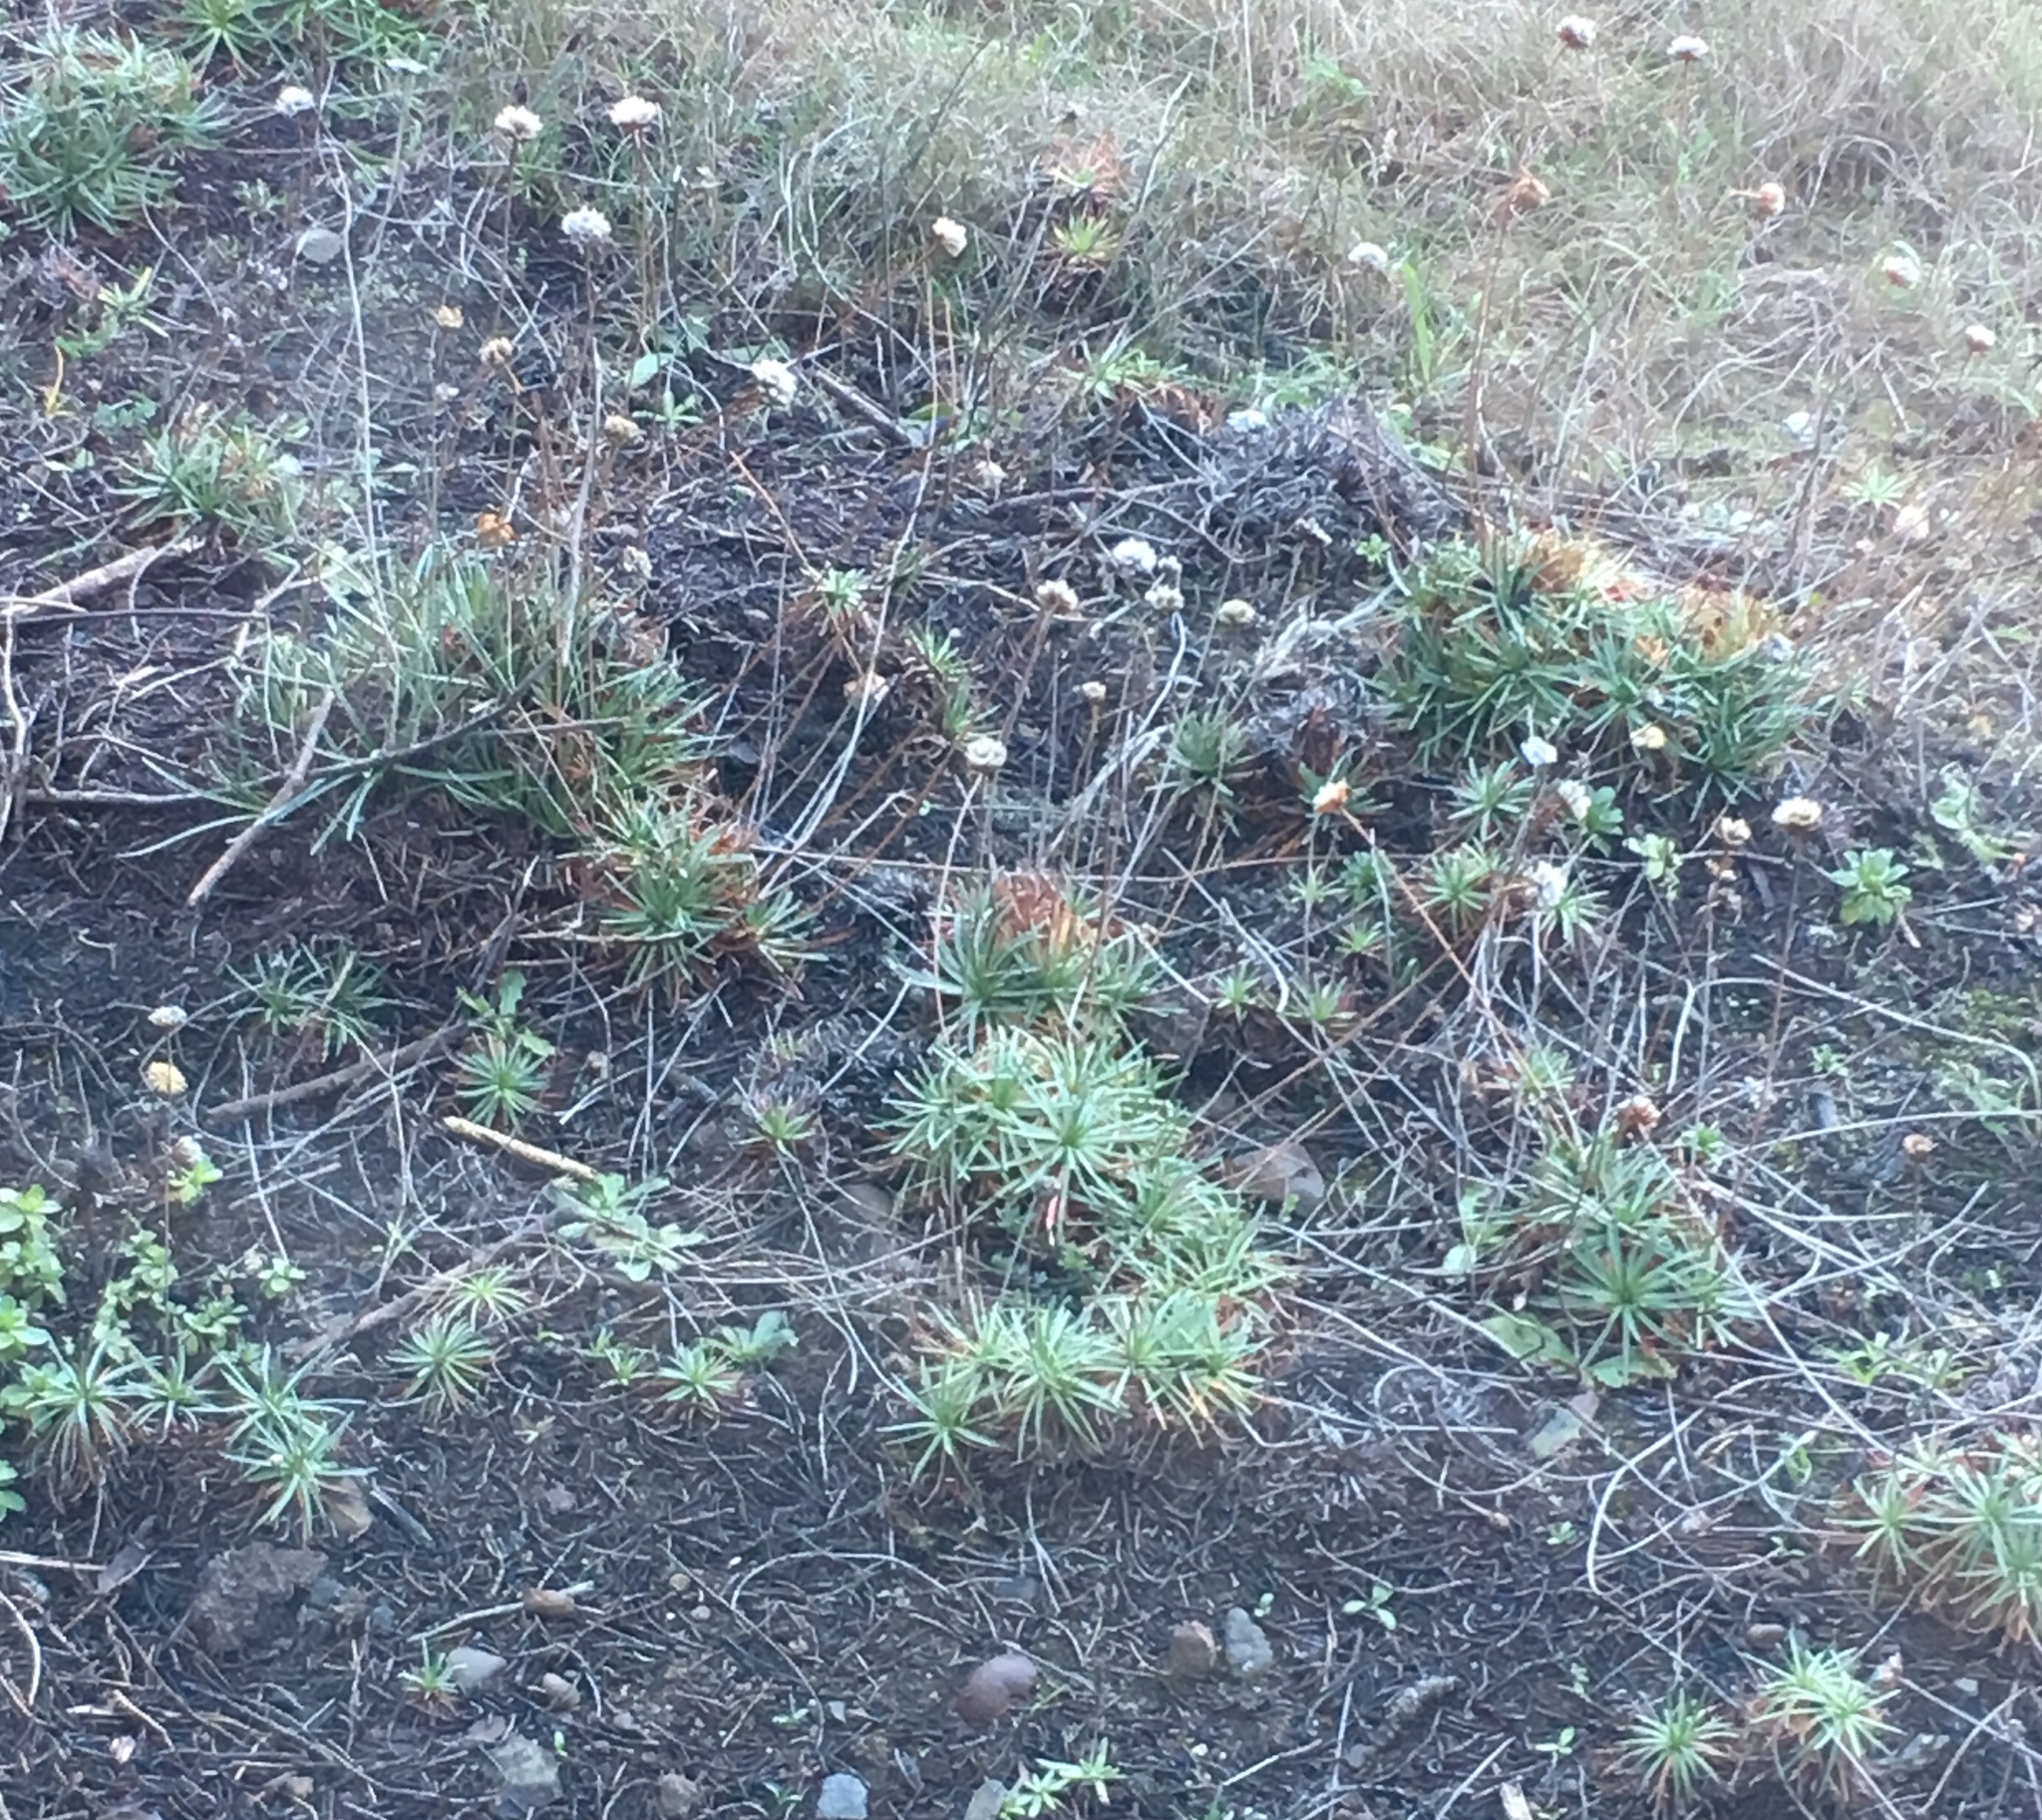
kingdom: Plantae
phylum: Tracheophyta
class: Magnoliopsida
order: Caryophyllales
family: Plumbaginaceae
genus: Armeria
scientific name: Armeria maritima
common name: Thrift
